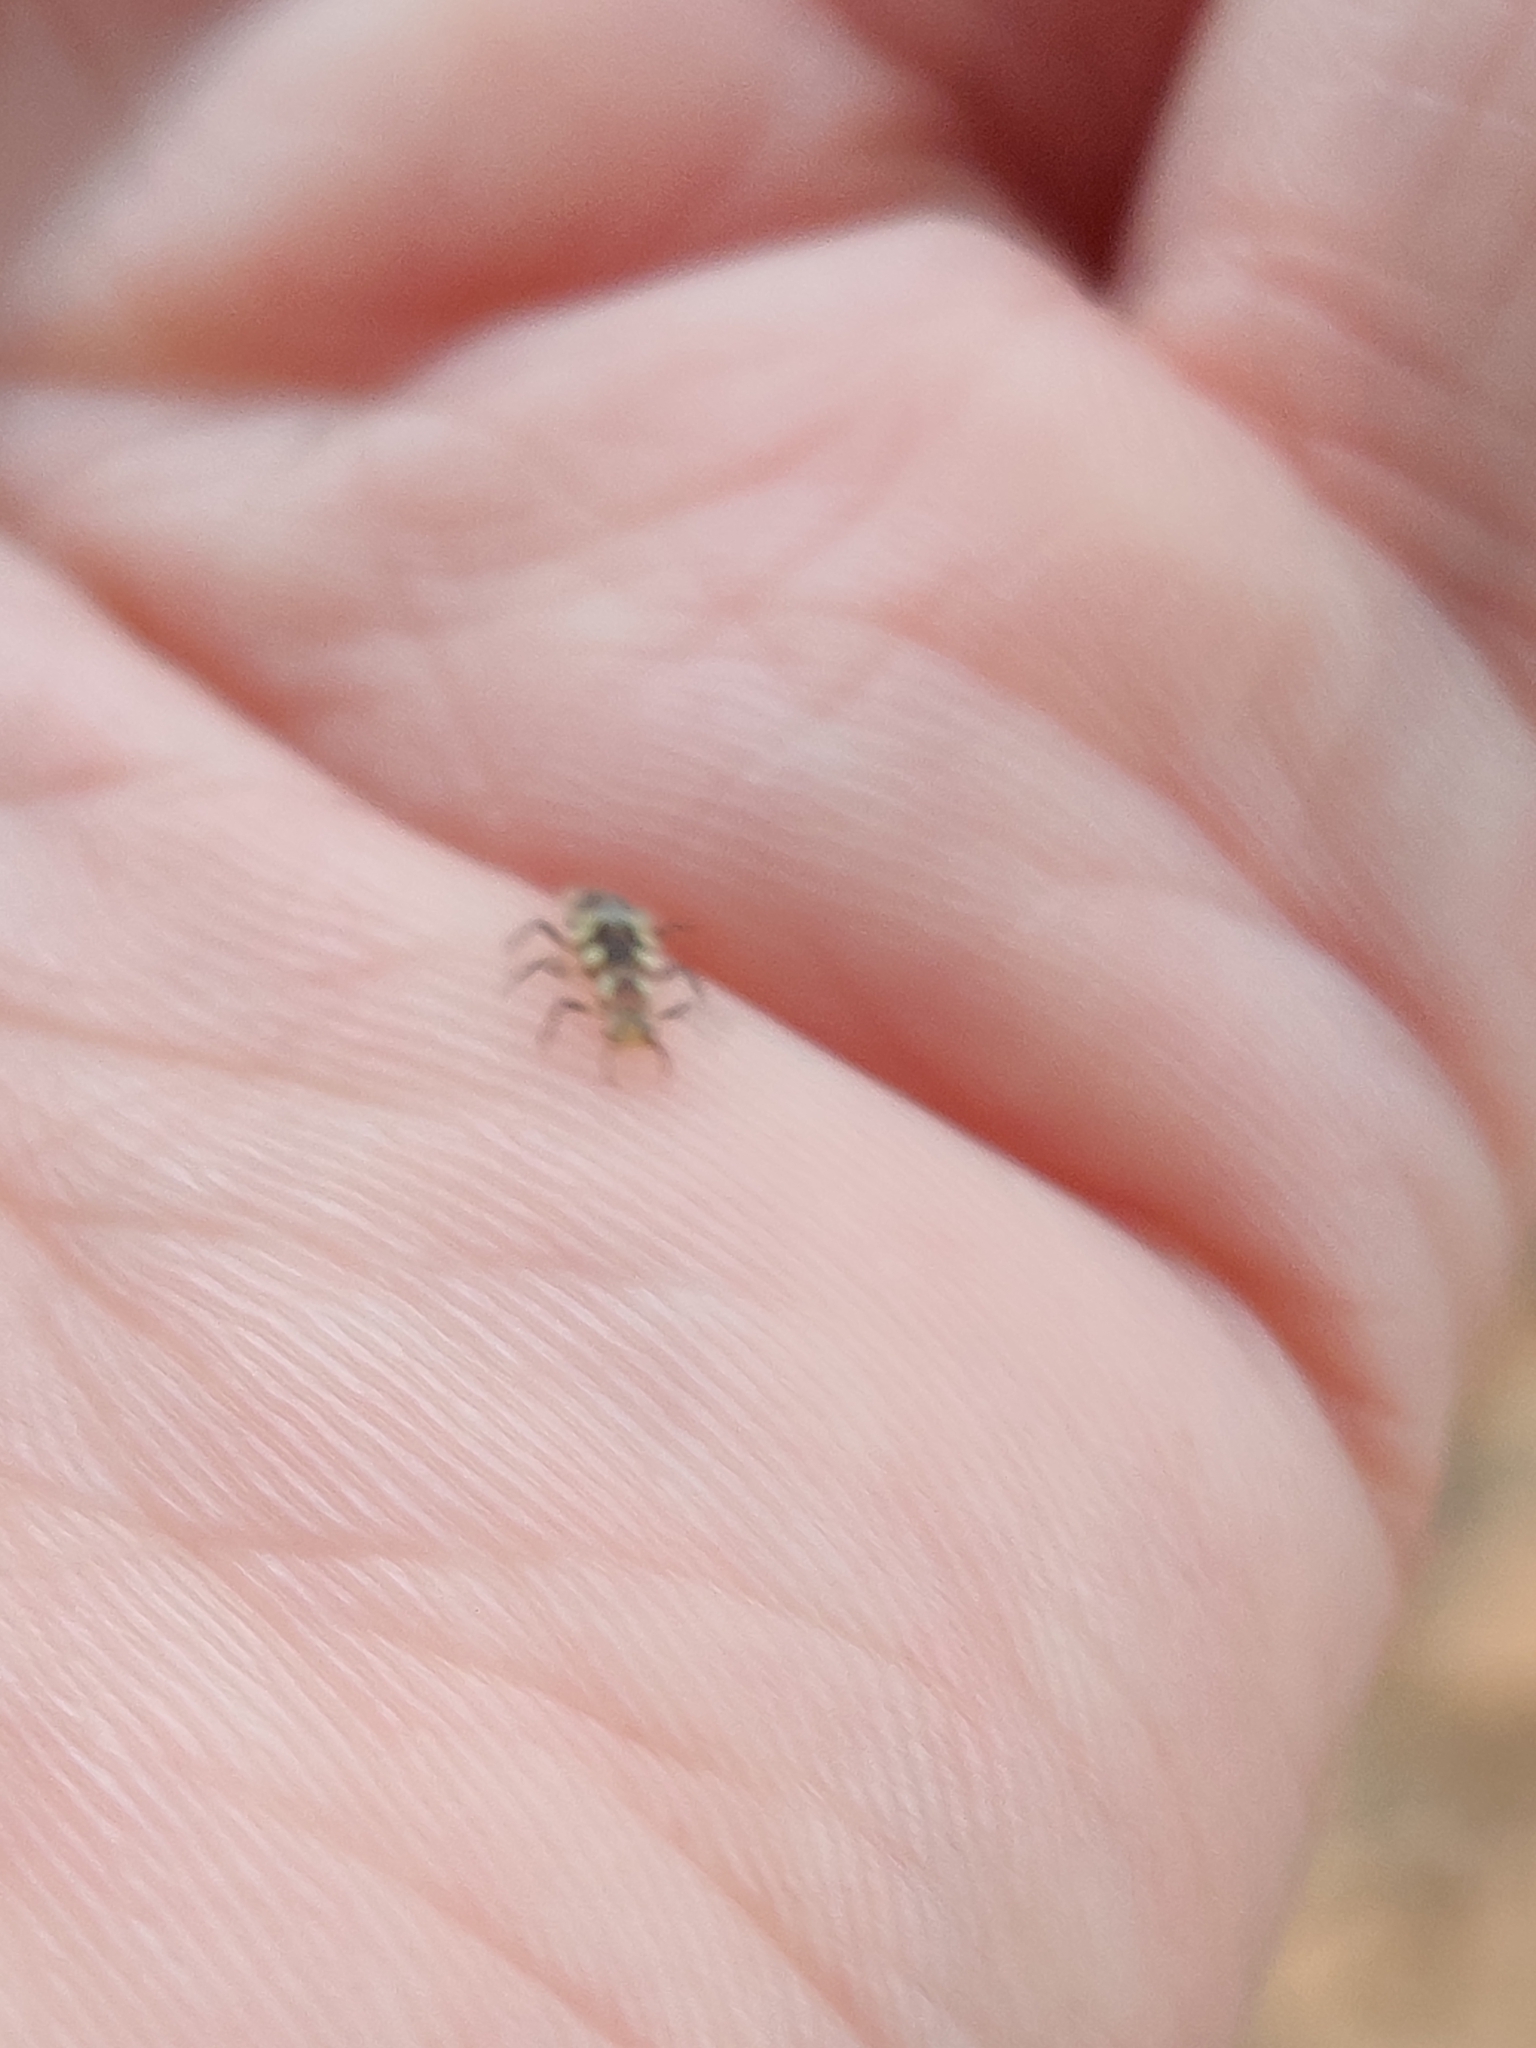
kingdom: Animalia
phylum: Arthropoda
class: Insecta
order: Neuroptera
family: Chrysopidae
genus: Chrysoperla
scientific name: Chrysoperla rufilabris
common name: Red-lipped green lacewing
